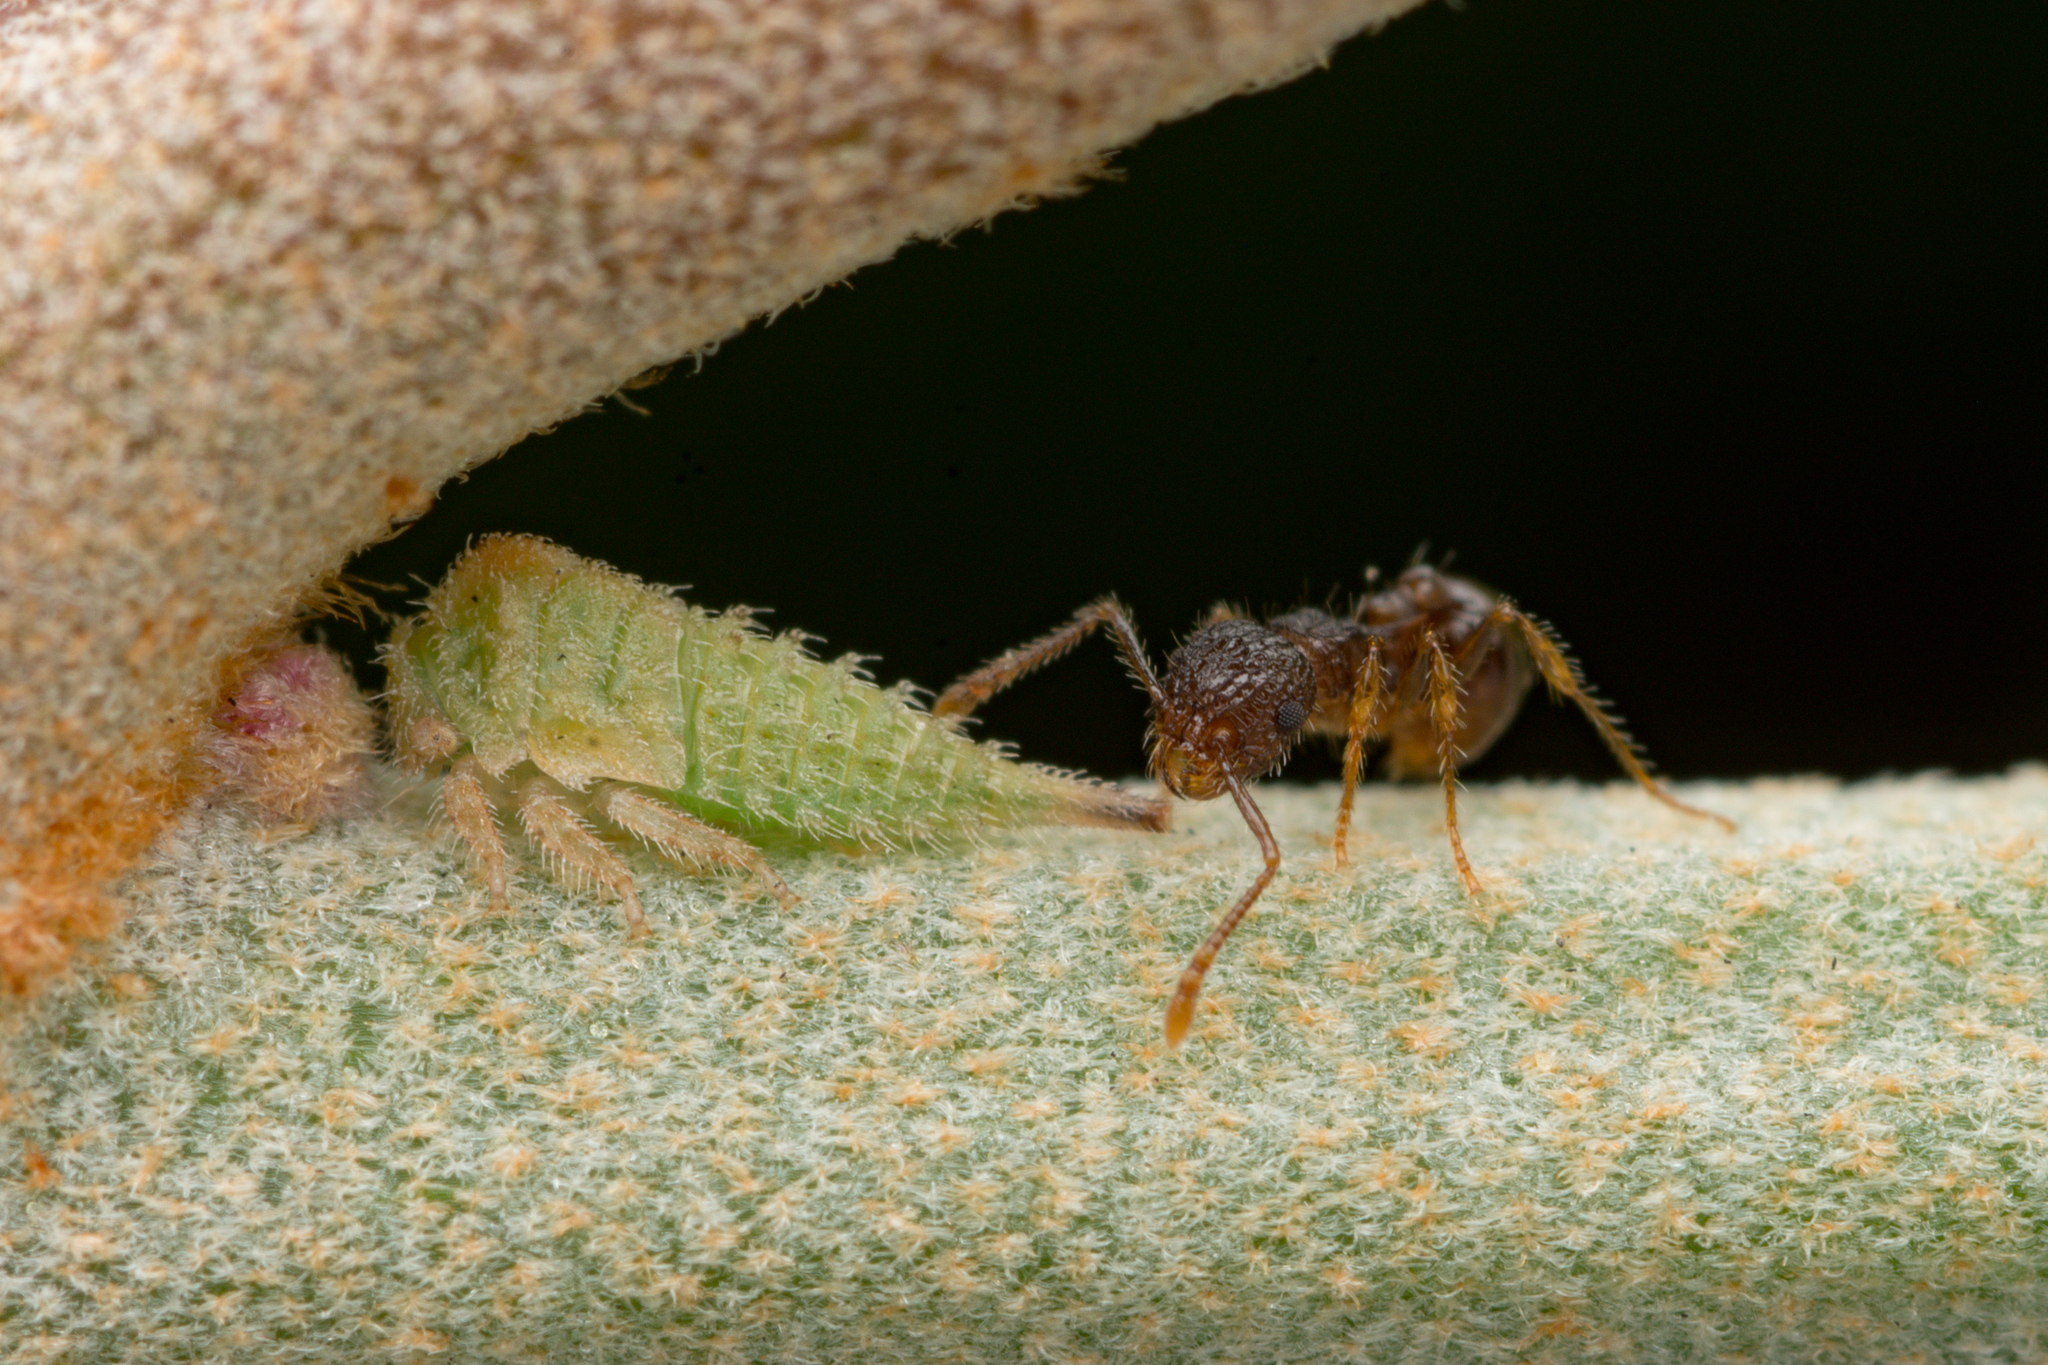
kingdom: Animalia
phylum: Arthropoda
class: Insecta
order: Hymenoptera
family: Formicidae
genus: Pristomyrmex
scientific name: Pristomyrmex punctatus
